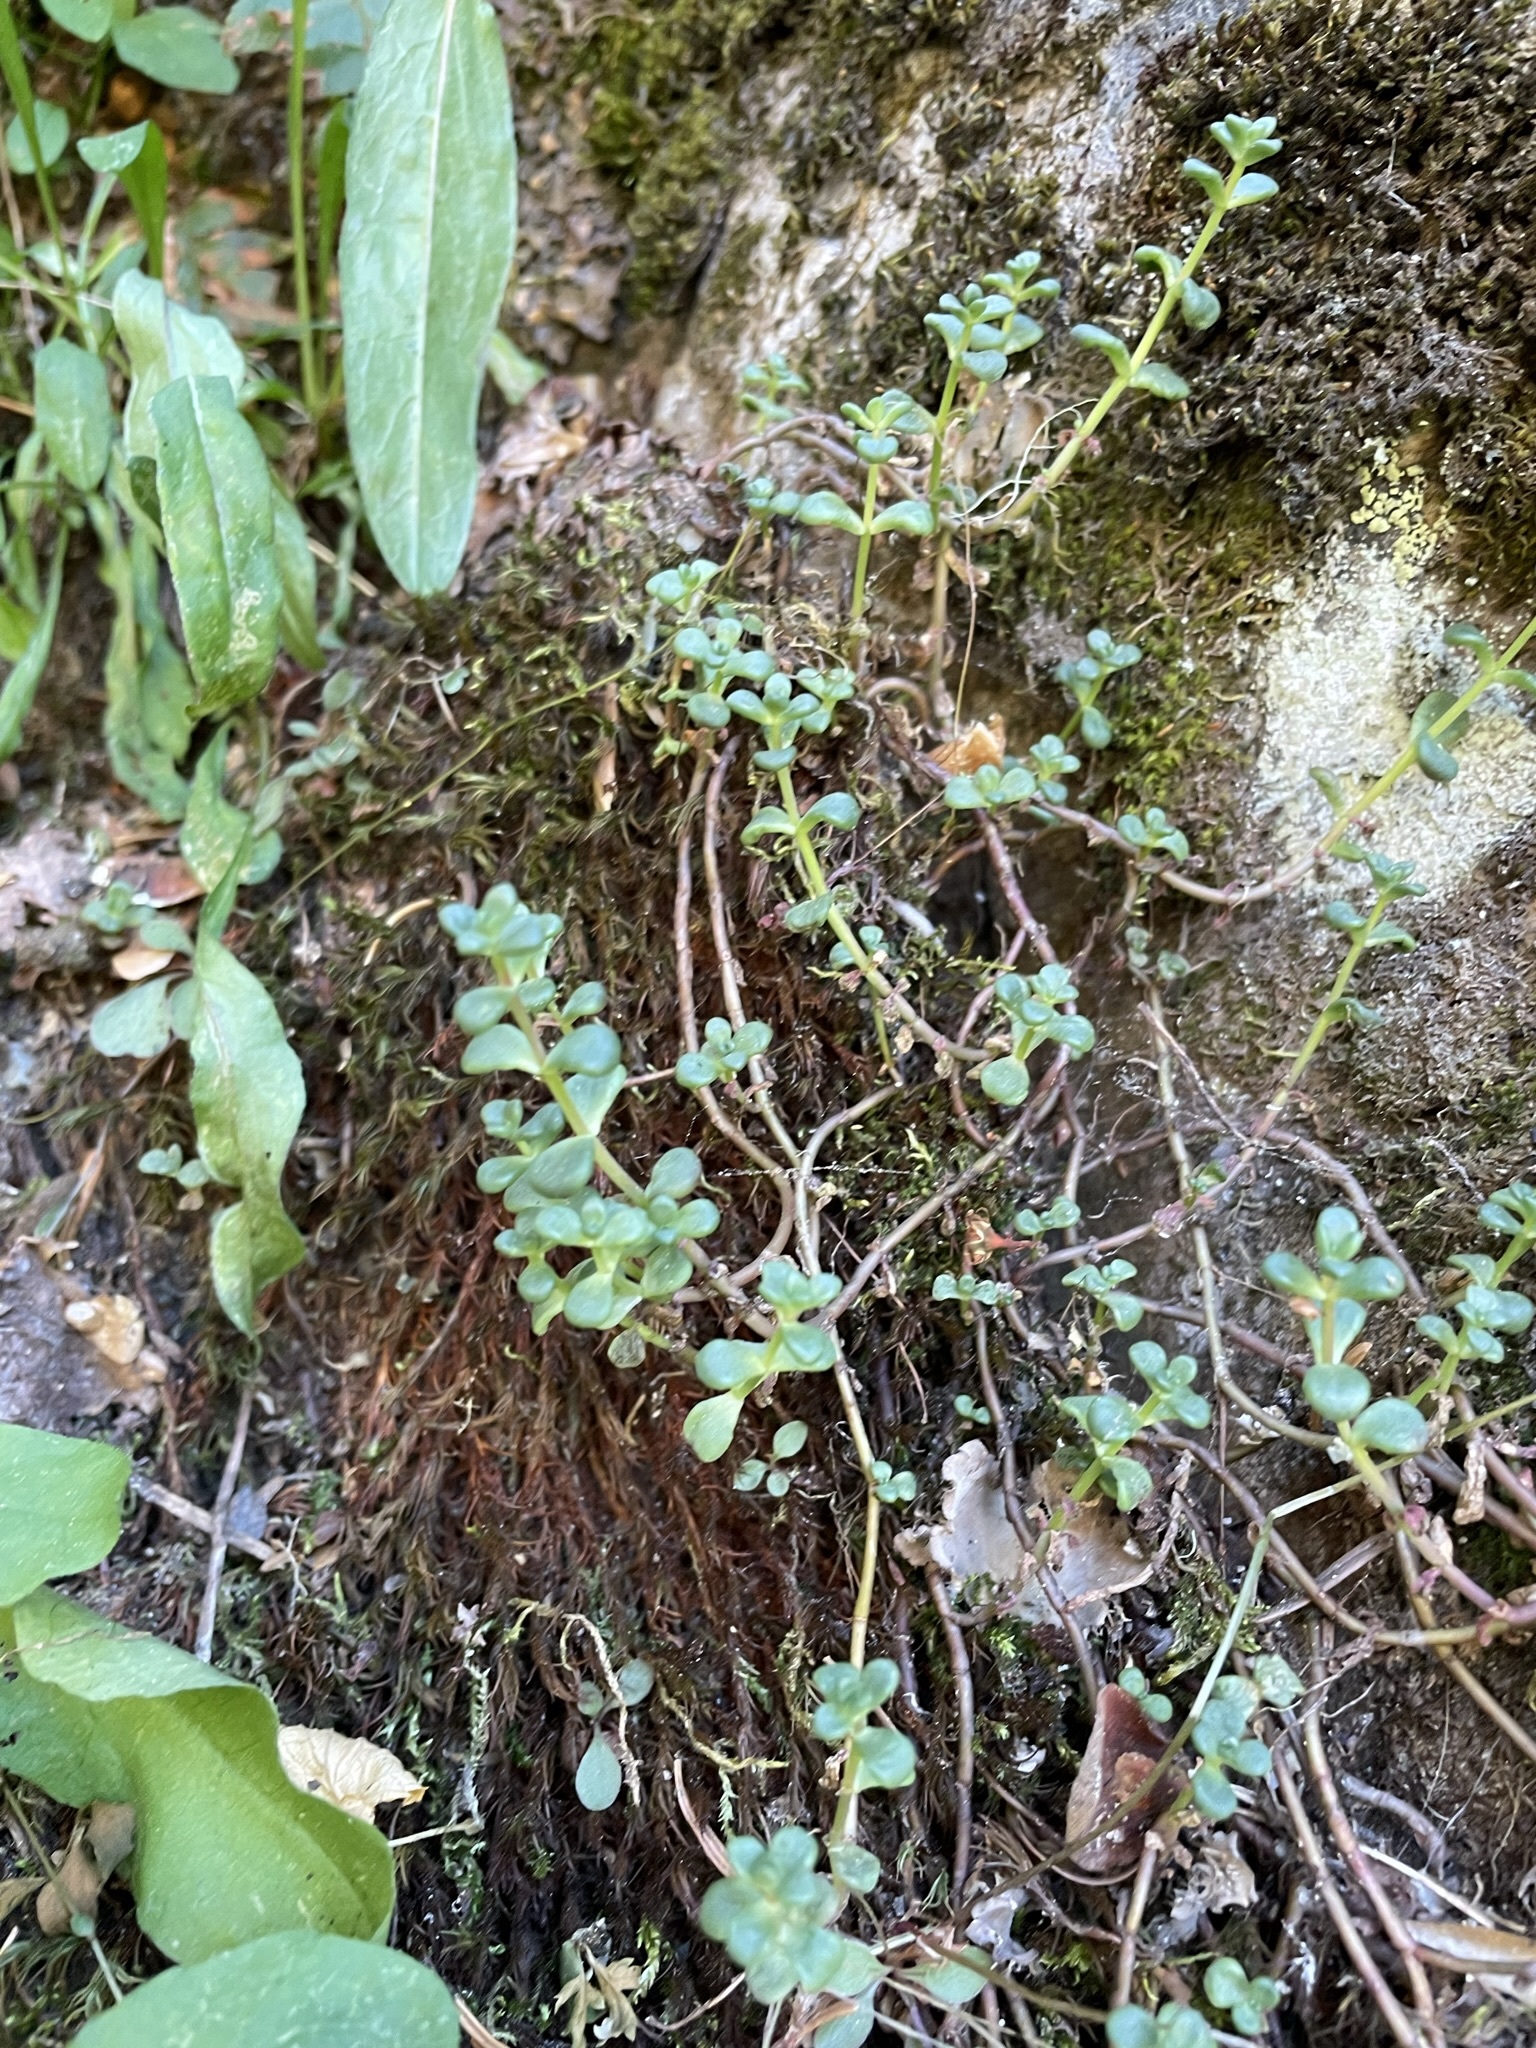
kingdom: Plantae
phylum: Tracheophyta
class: Magnoliopsida
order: Saxifragales
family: Crassulaceae
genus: Sedum
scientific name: Sedum divergens
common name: Cascade stonecrop
